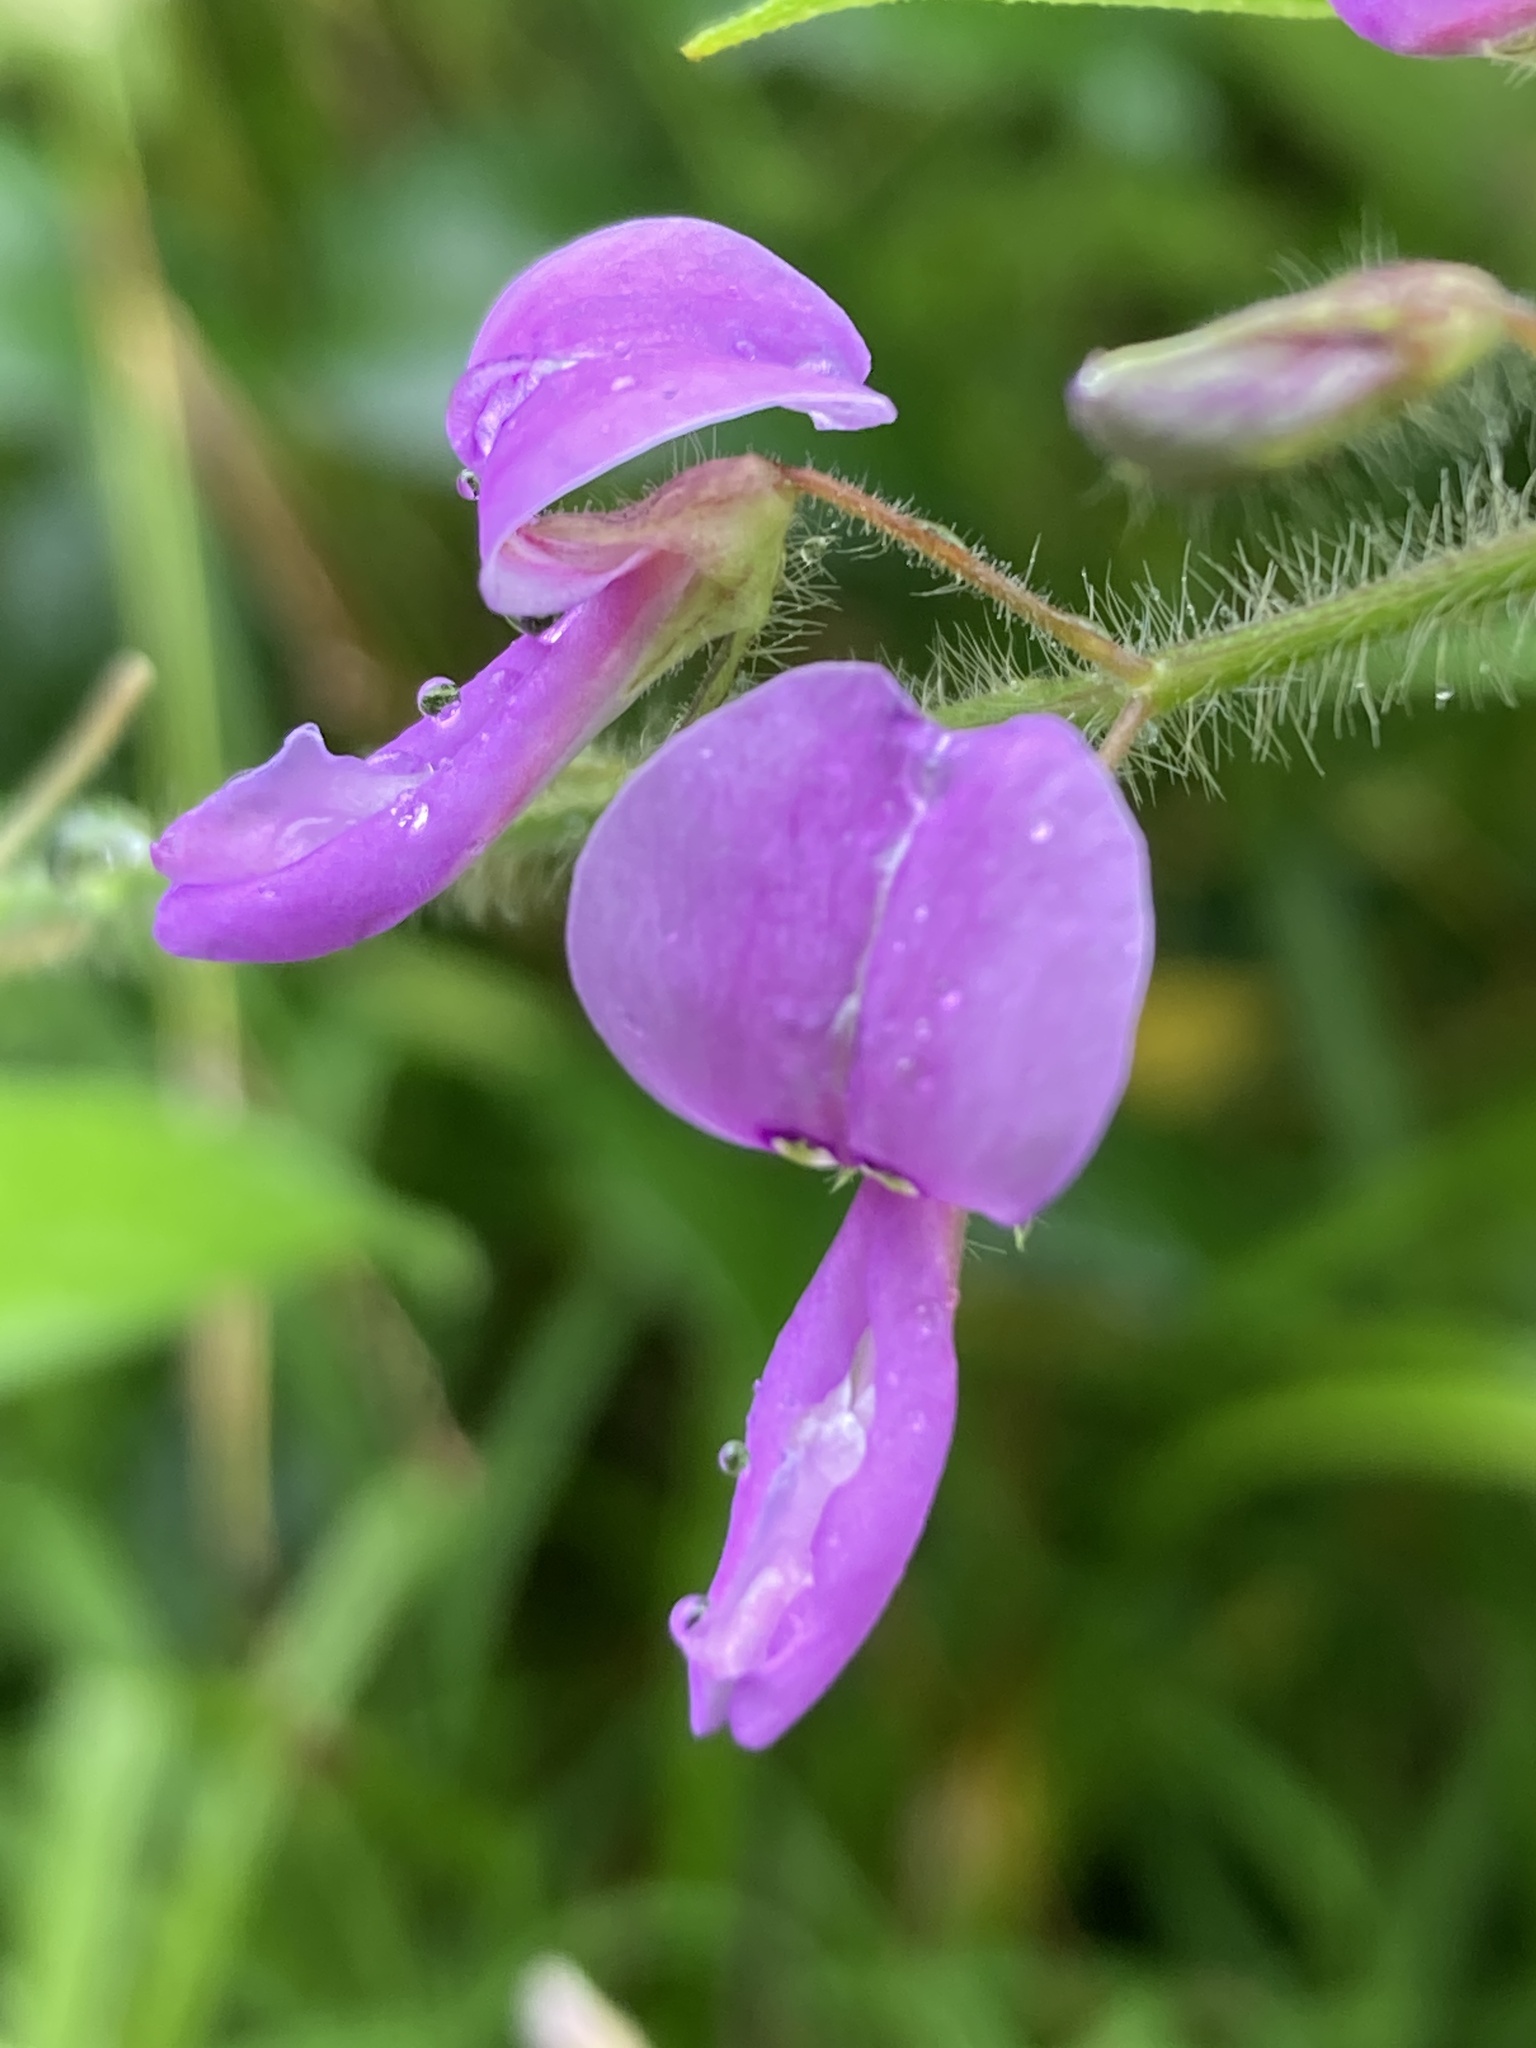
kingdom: Plantae
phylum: Tracheophyta
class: Magnoliopsida
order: Fabales
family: Fabaceae
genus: Desmodium
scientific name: Desmodium canescens
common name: Hoary tick-clover
